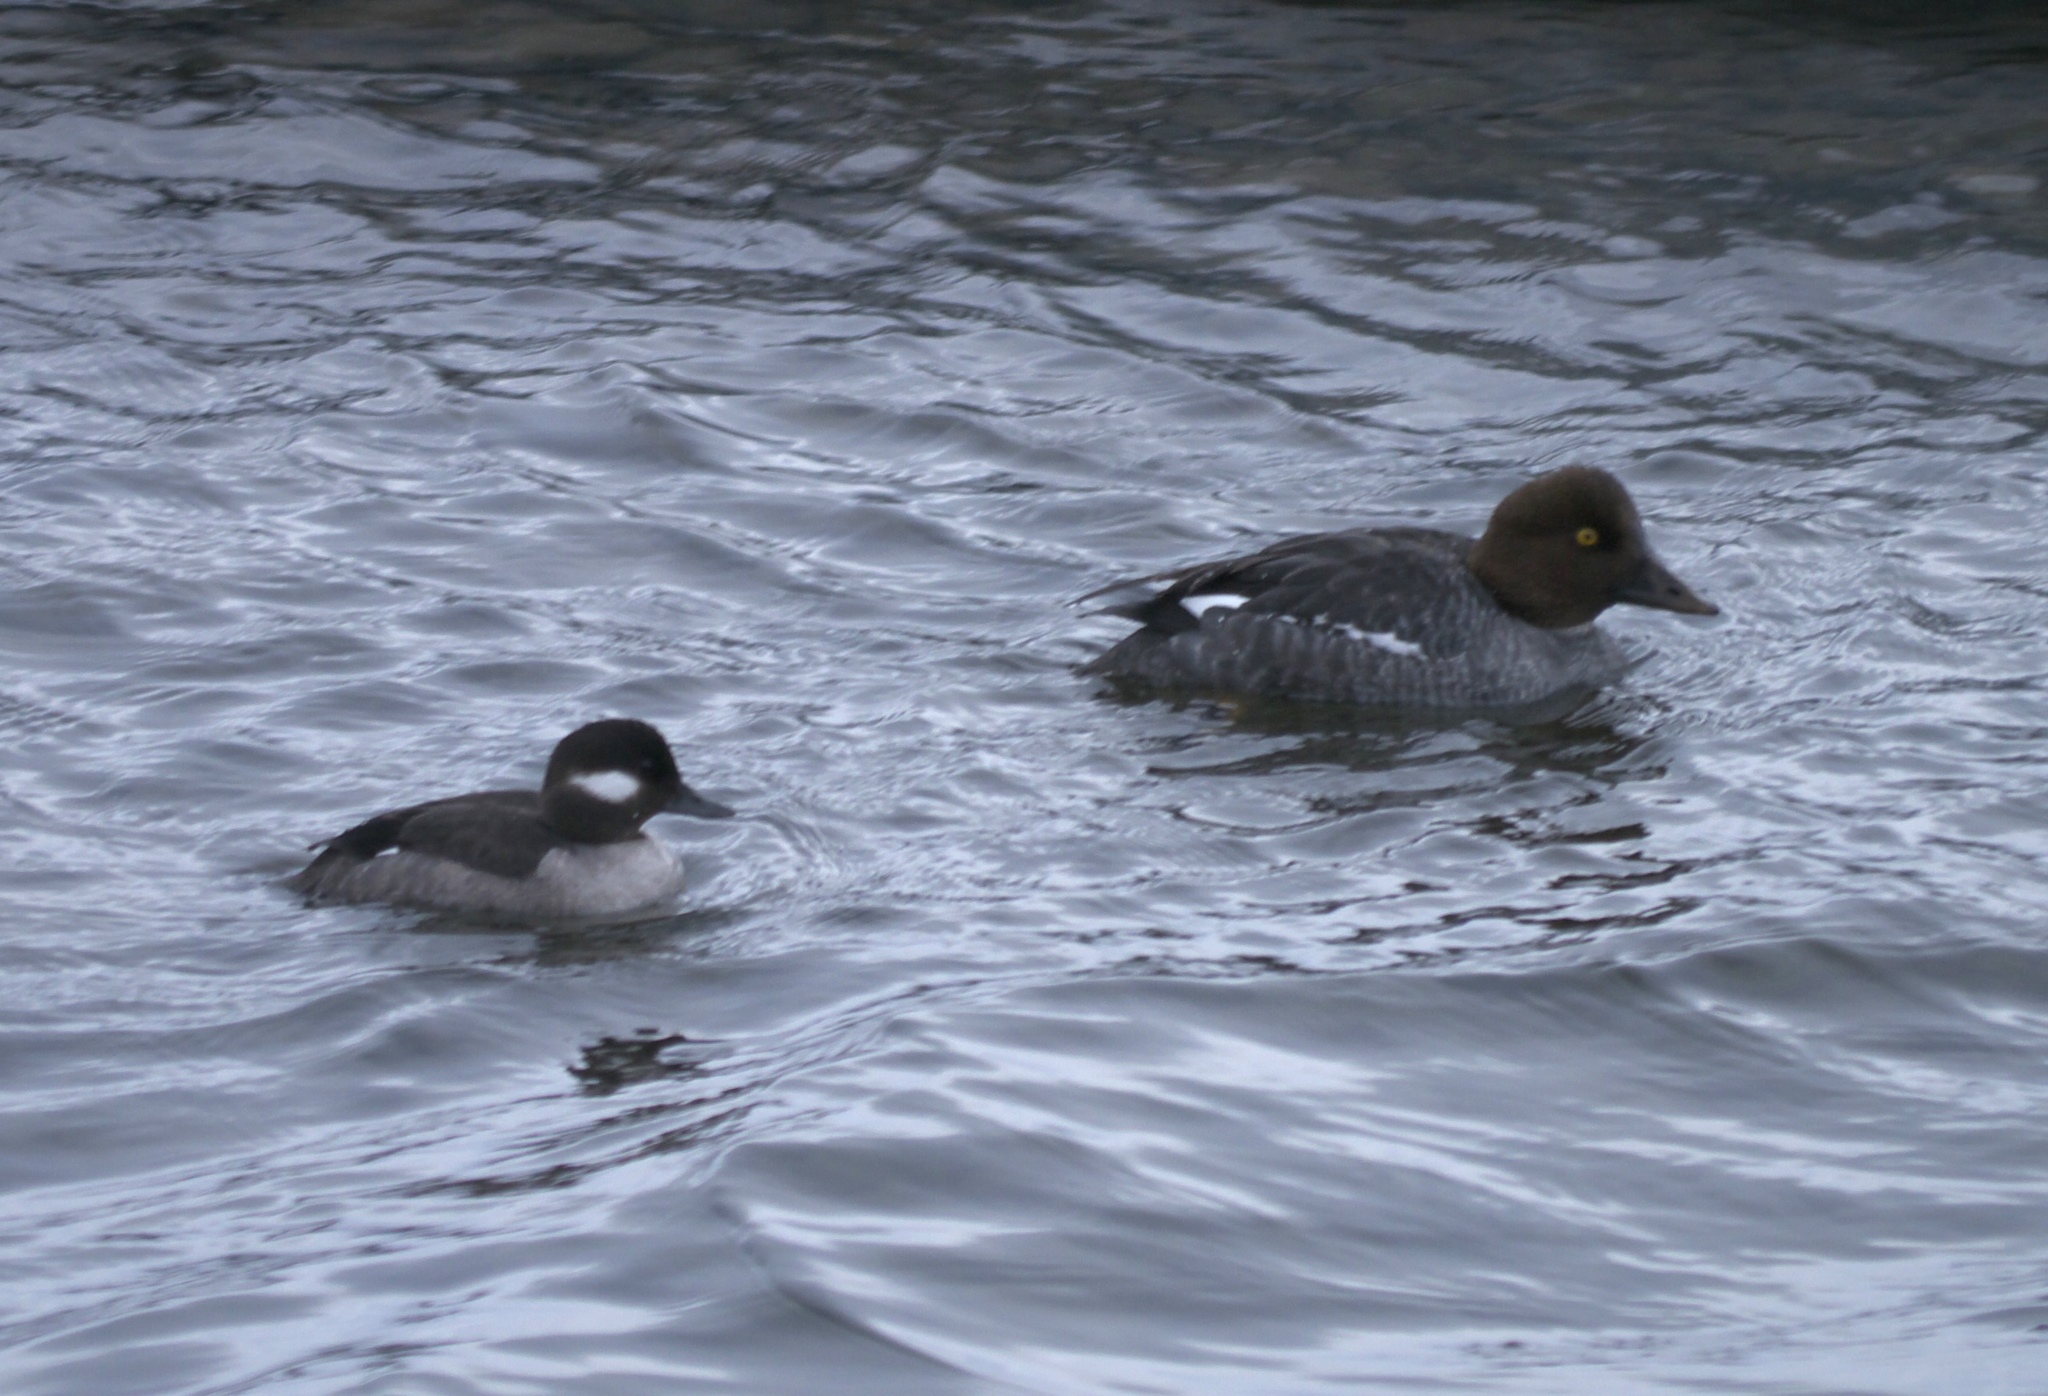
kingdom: Animalia
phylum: Chordata
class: Aves
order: Anseriformes
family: Anatidae
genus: Bucephala
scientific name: Bucephala clangula
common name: Common goldeneye
